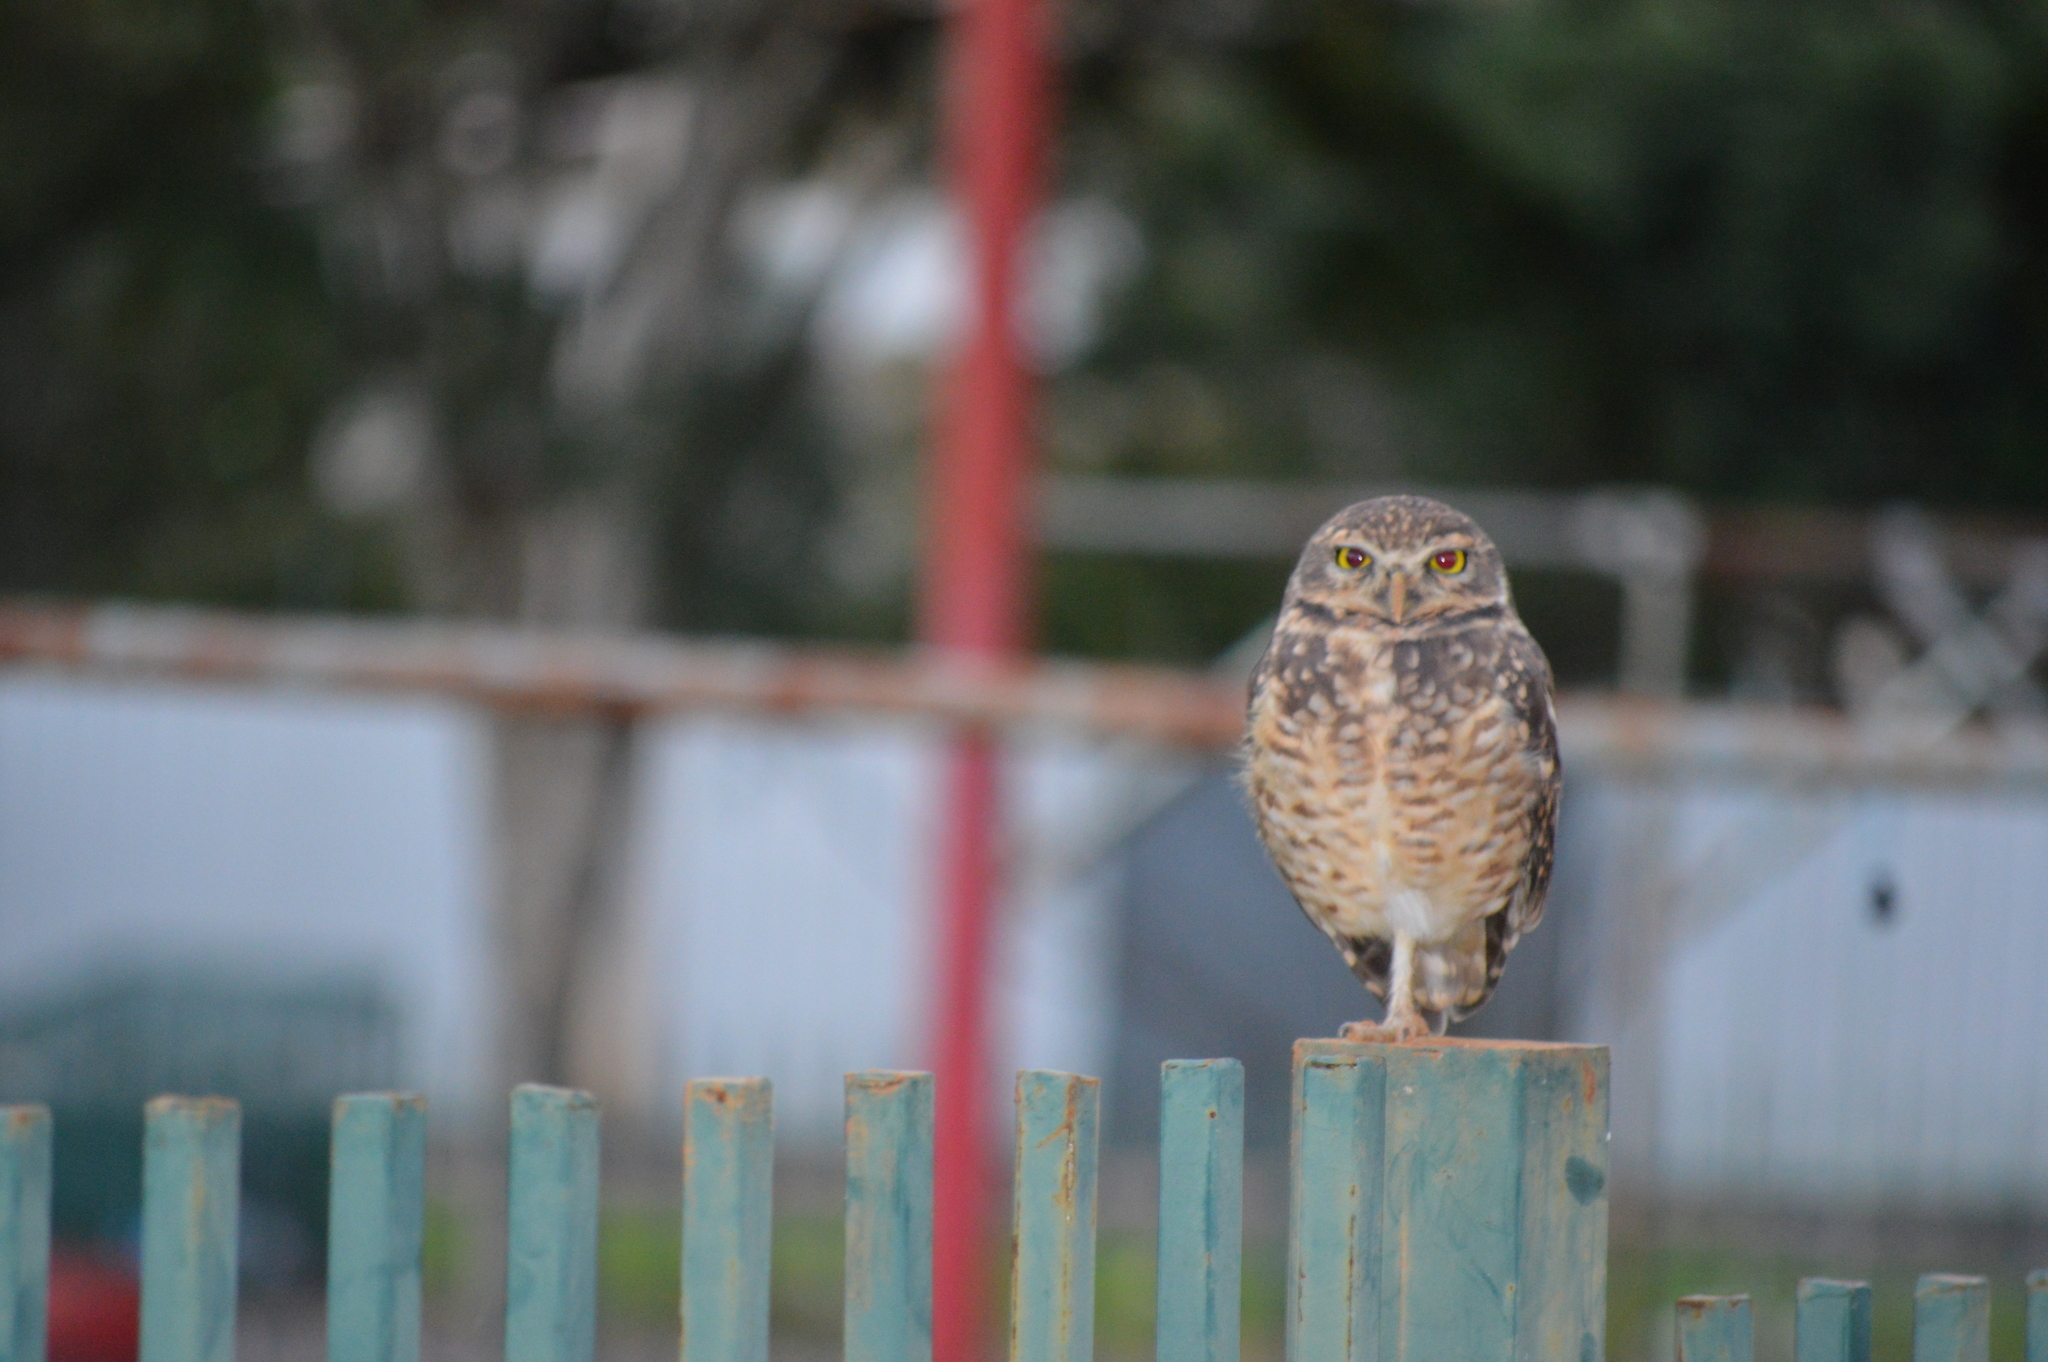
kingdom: Animalia
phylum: Chordata
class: Aves
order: Strigiformes
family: Strigidae
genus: Athene
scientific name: Athene cunicularia
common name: Burrowing owl
